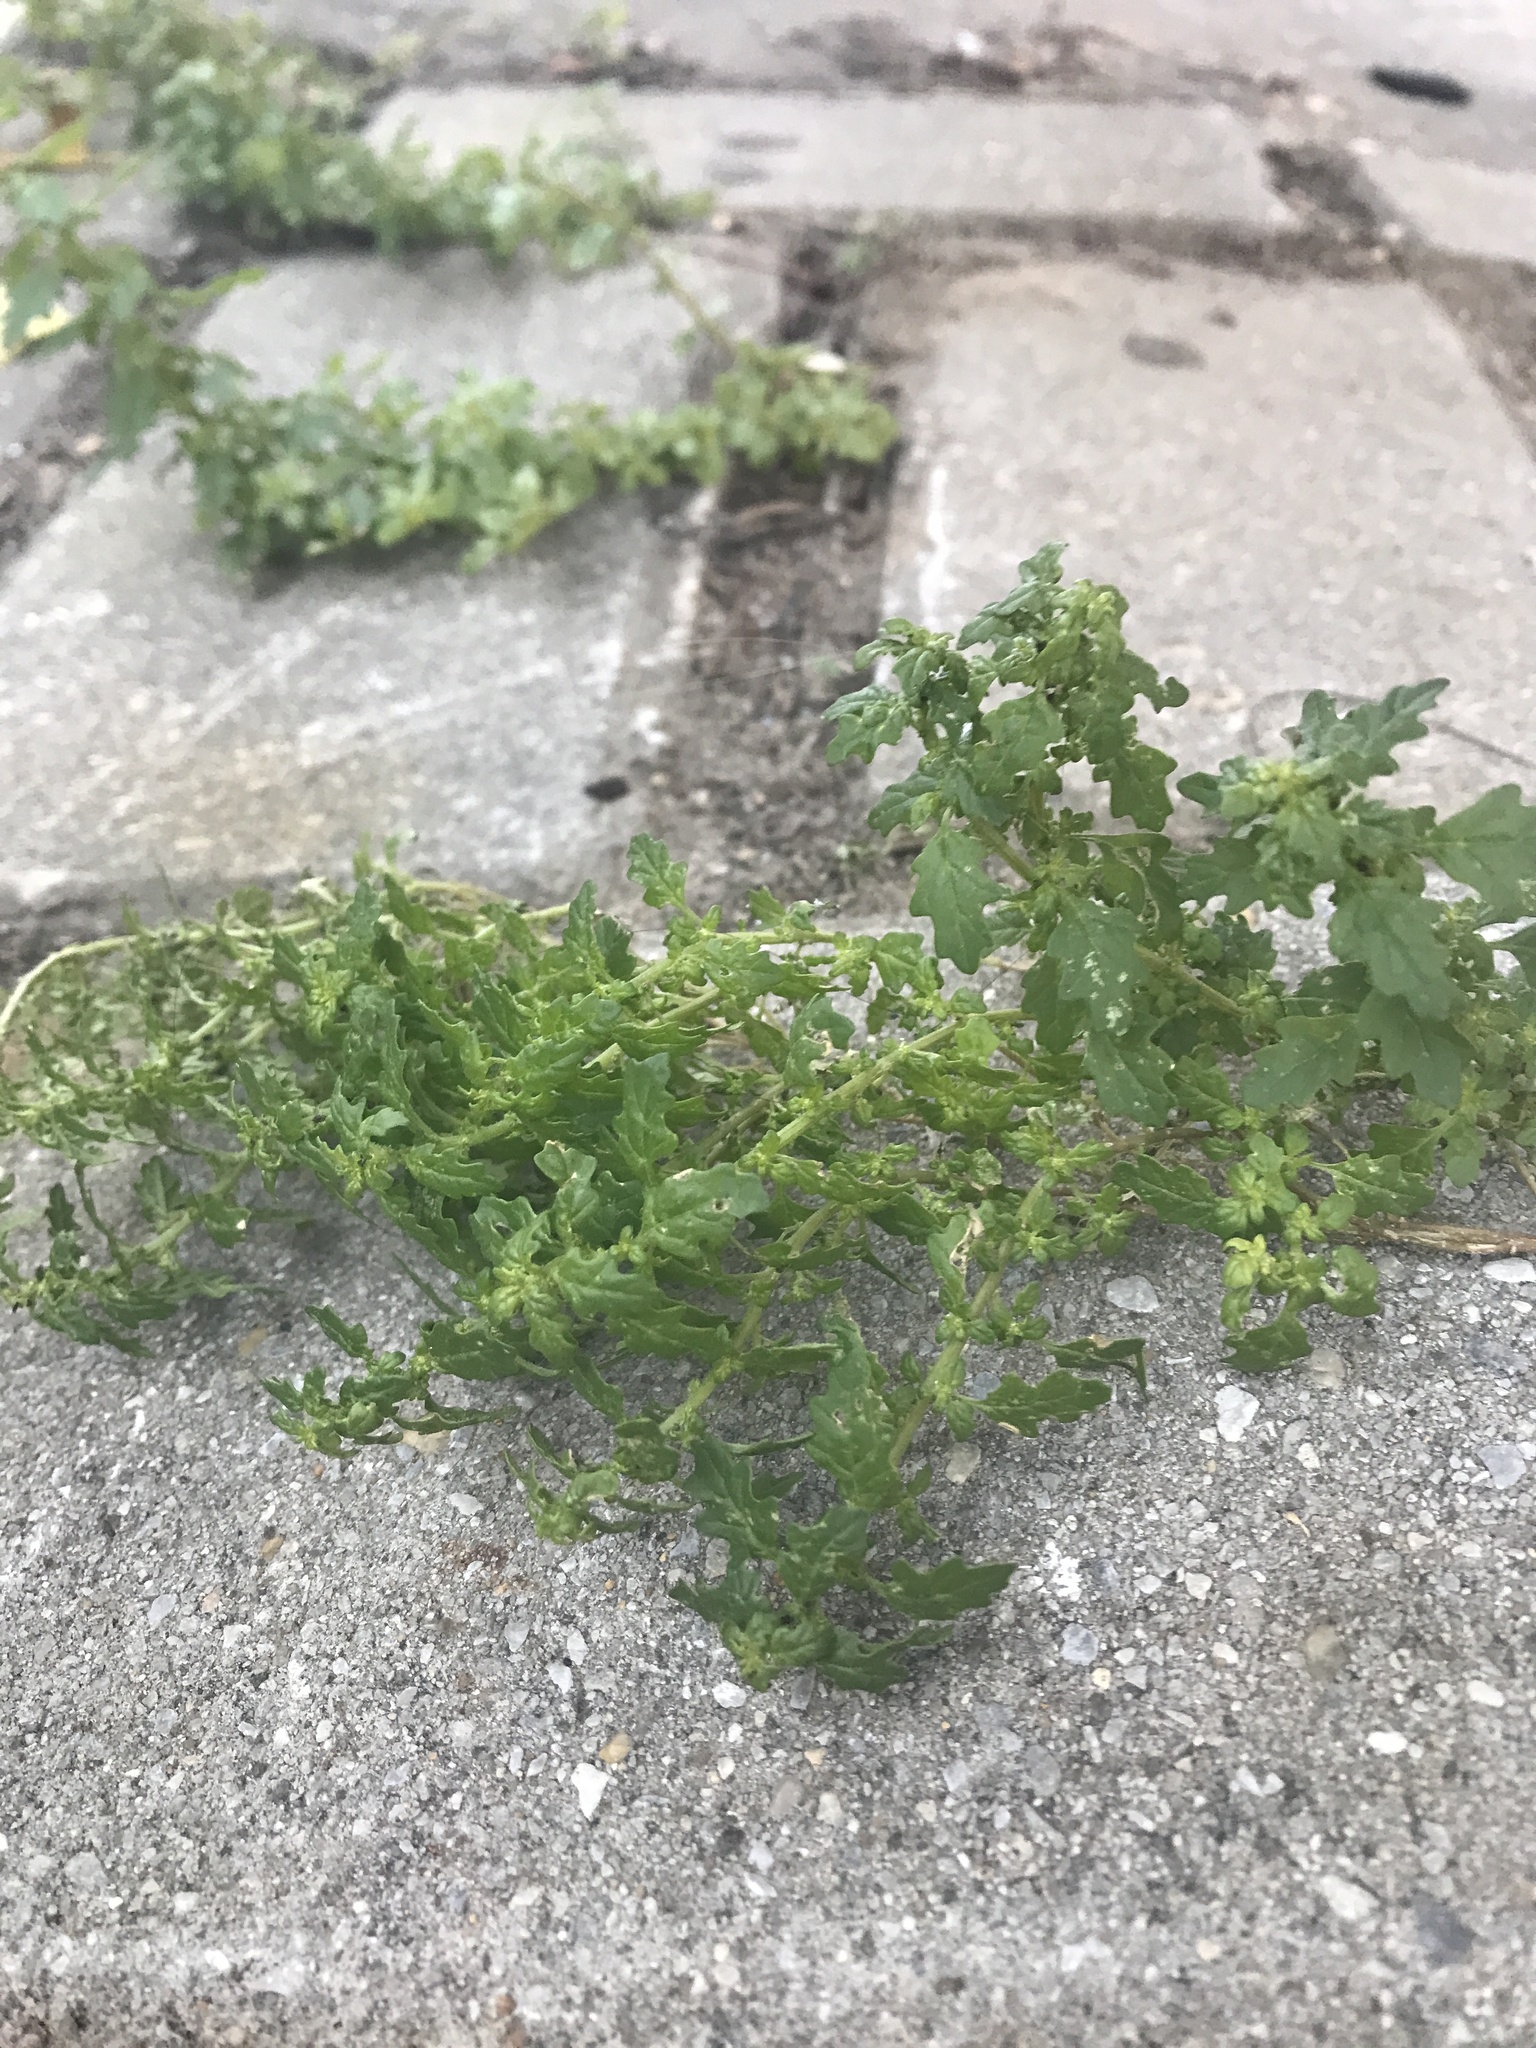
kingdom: Plantae
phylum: Tracheophyta
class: Magnoliopsida
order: Caryophyllales
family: Amaranthaceae
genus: Dysphania
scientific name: Dysphania pumilio
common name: Clammy goosefoot
